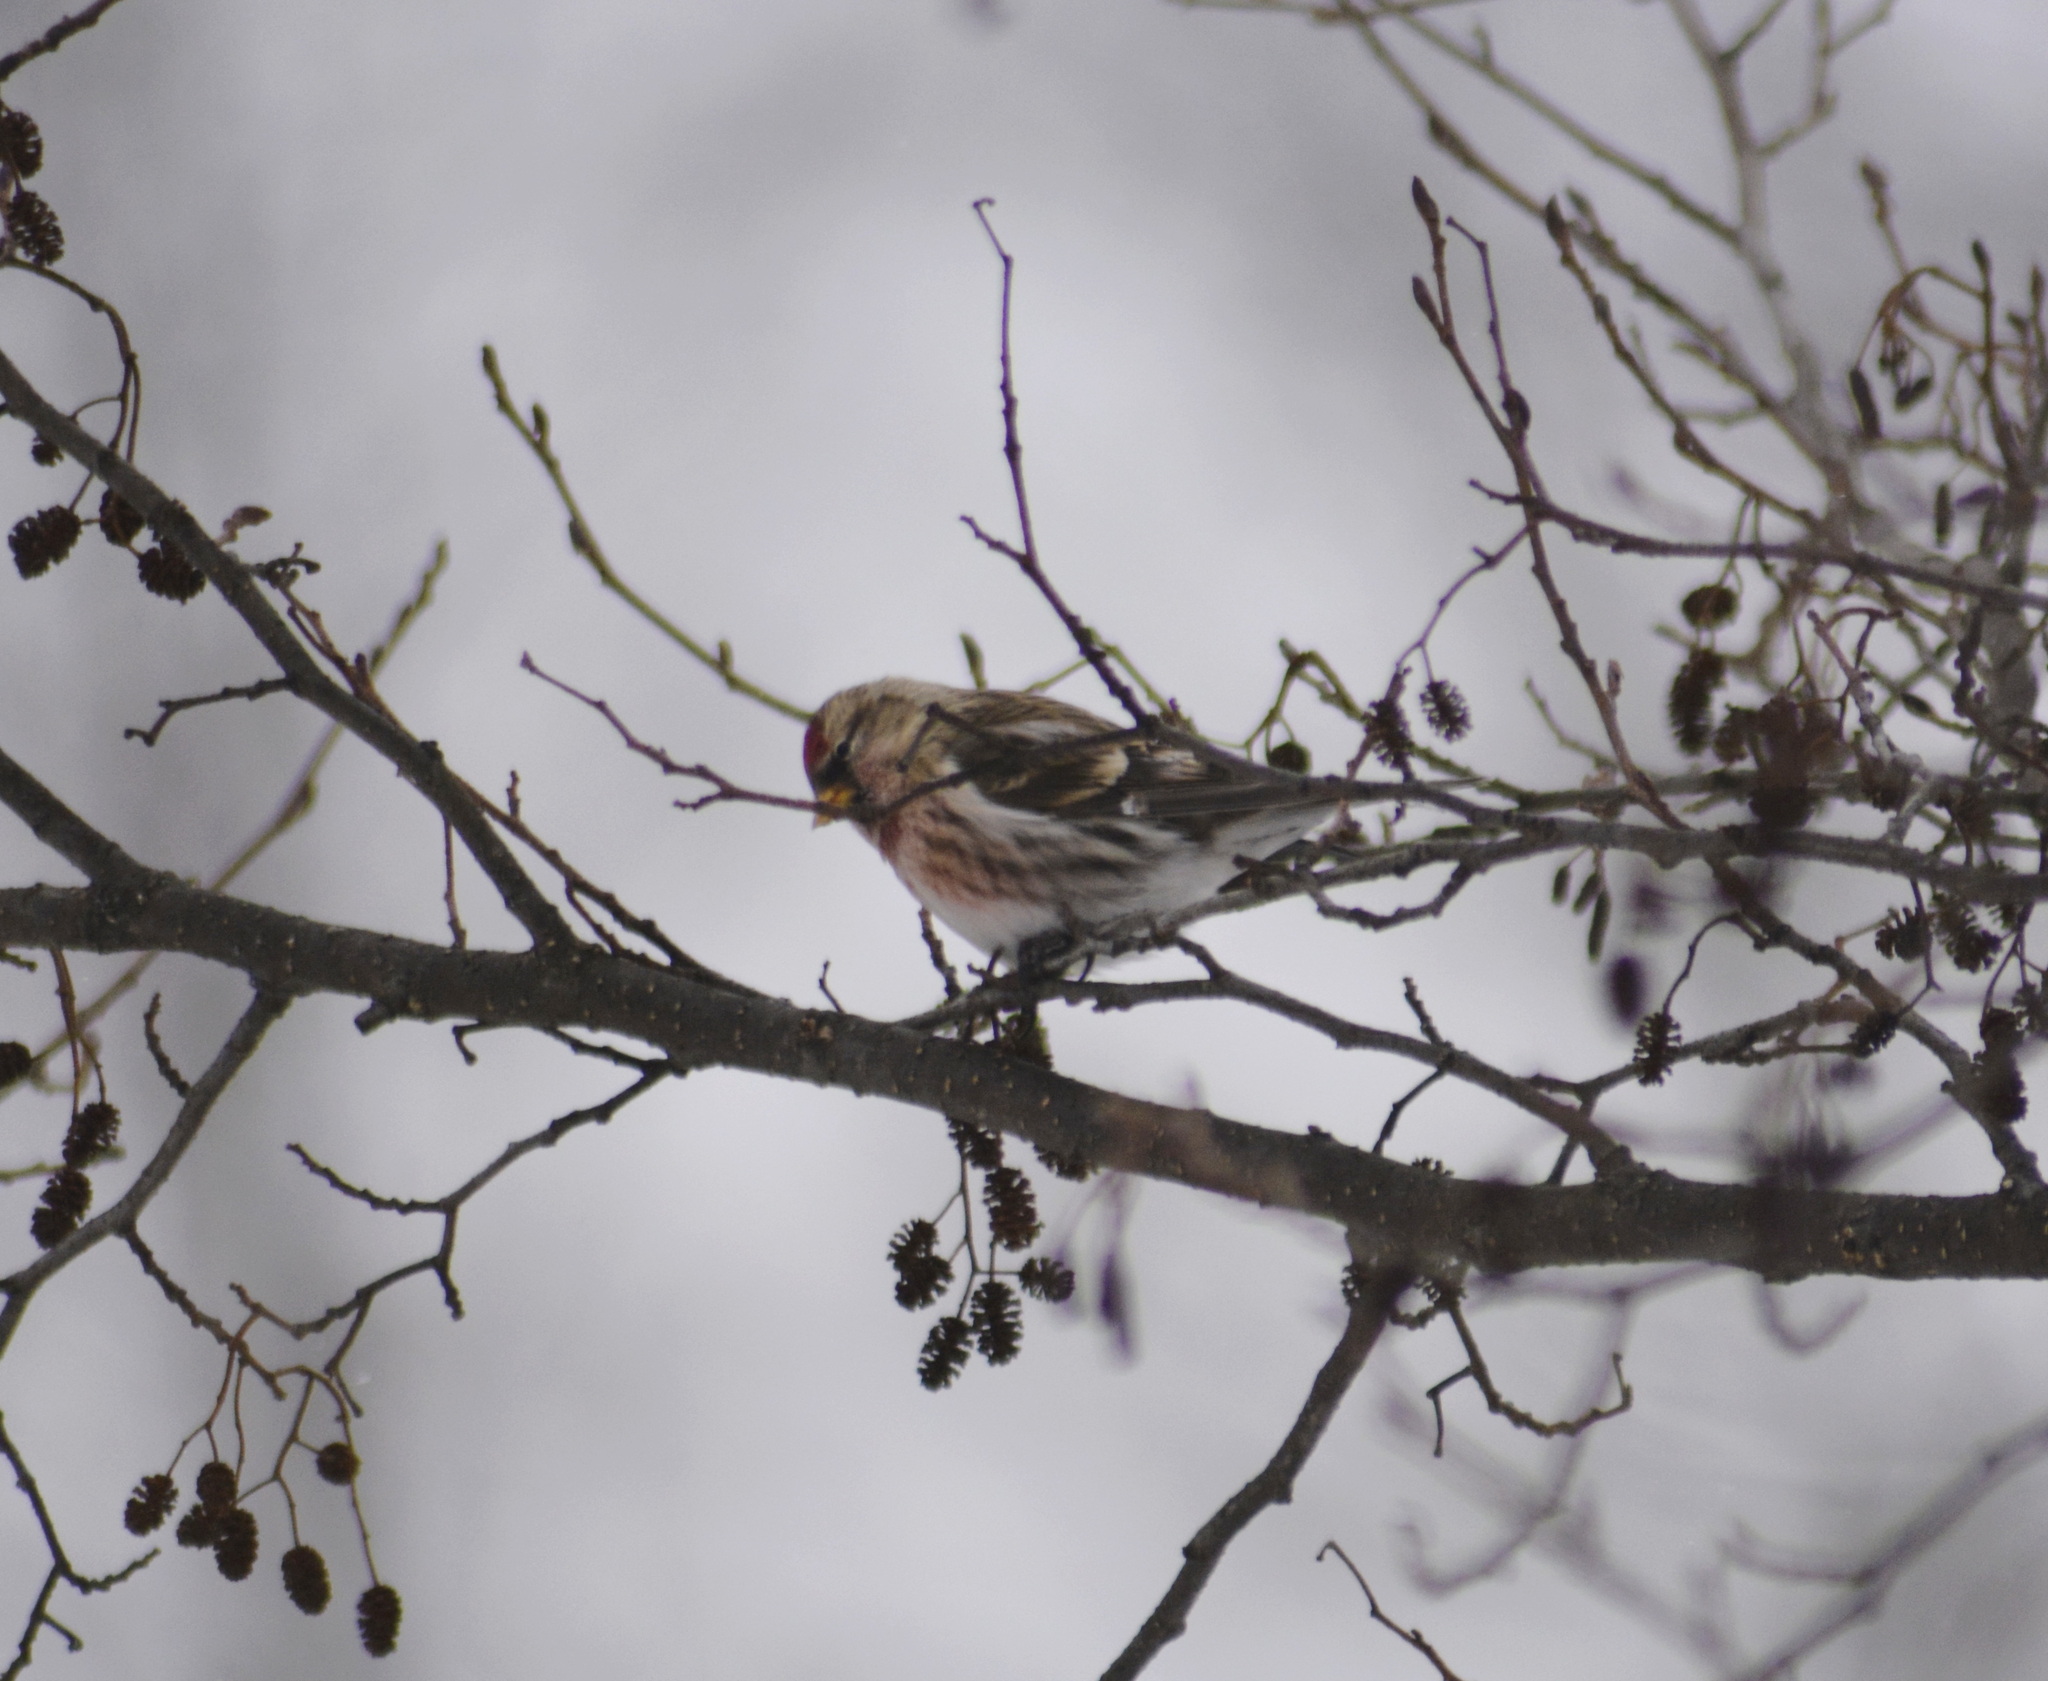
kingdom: Animalia
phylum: Chordata
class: Aves
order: Passeriformes
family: Fringillidae
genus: Acanthis
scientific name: Acanthis flammea
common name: Common redpoll
